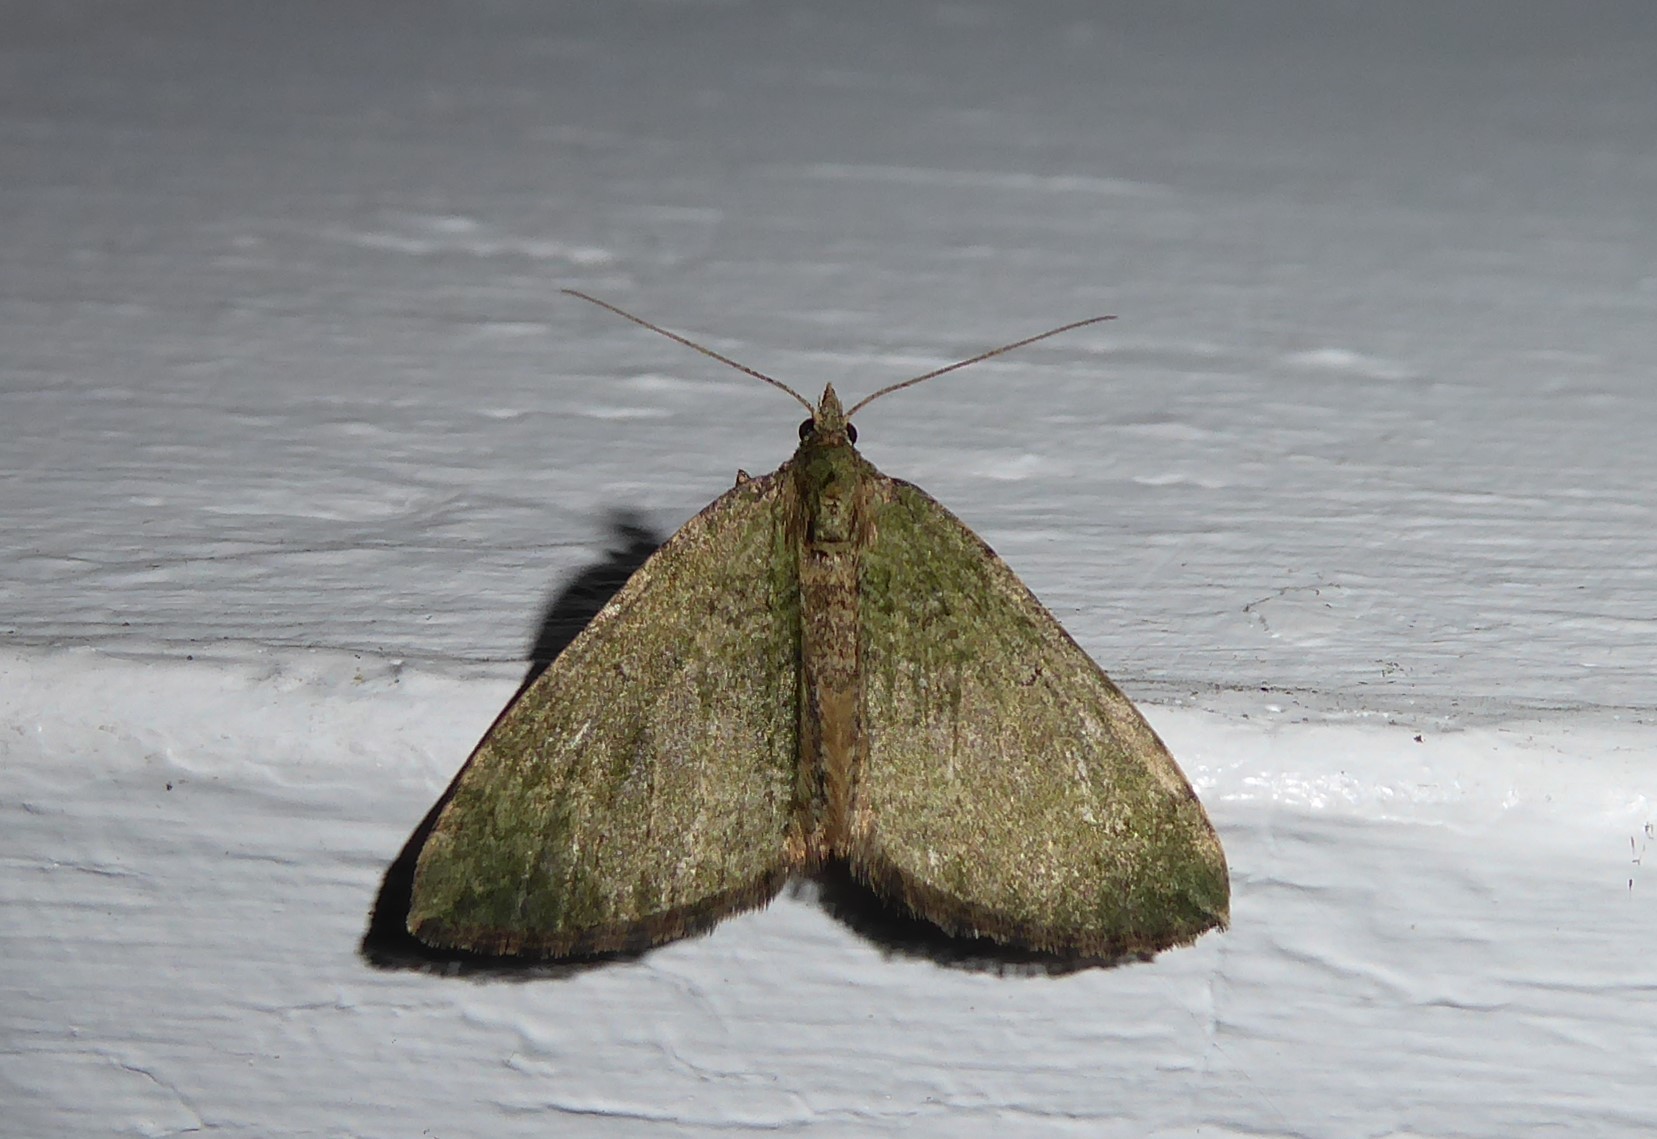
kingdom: Animalia
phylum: Arthropoda
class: Insecta
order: Lepidoptera
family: Geometridae
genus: Epyaxa
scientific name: Epyaxa rosearia
